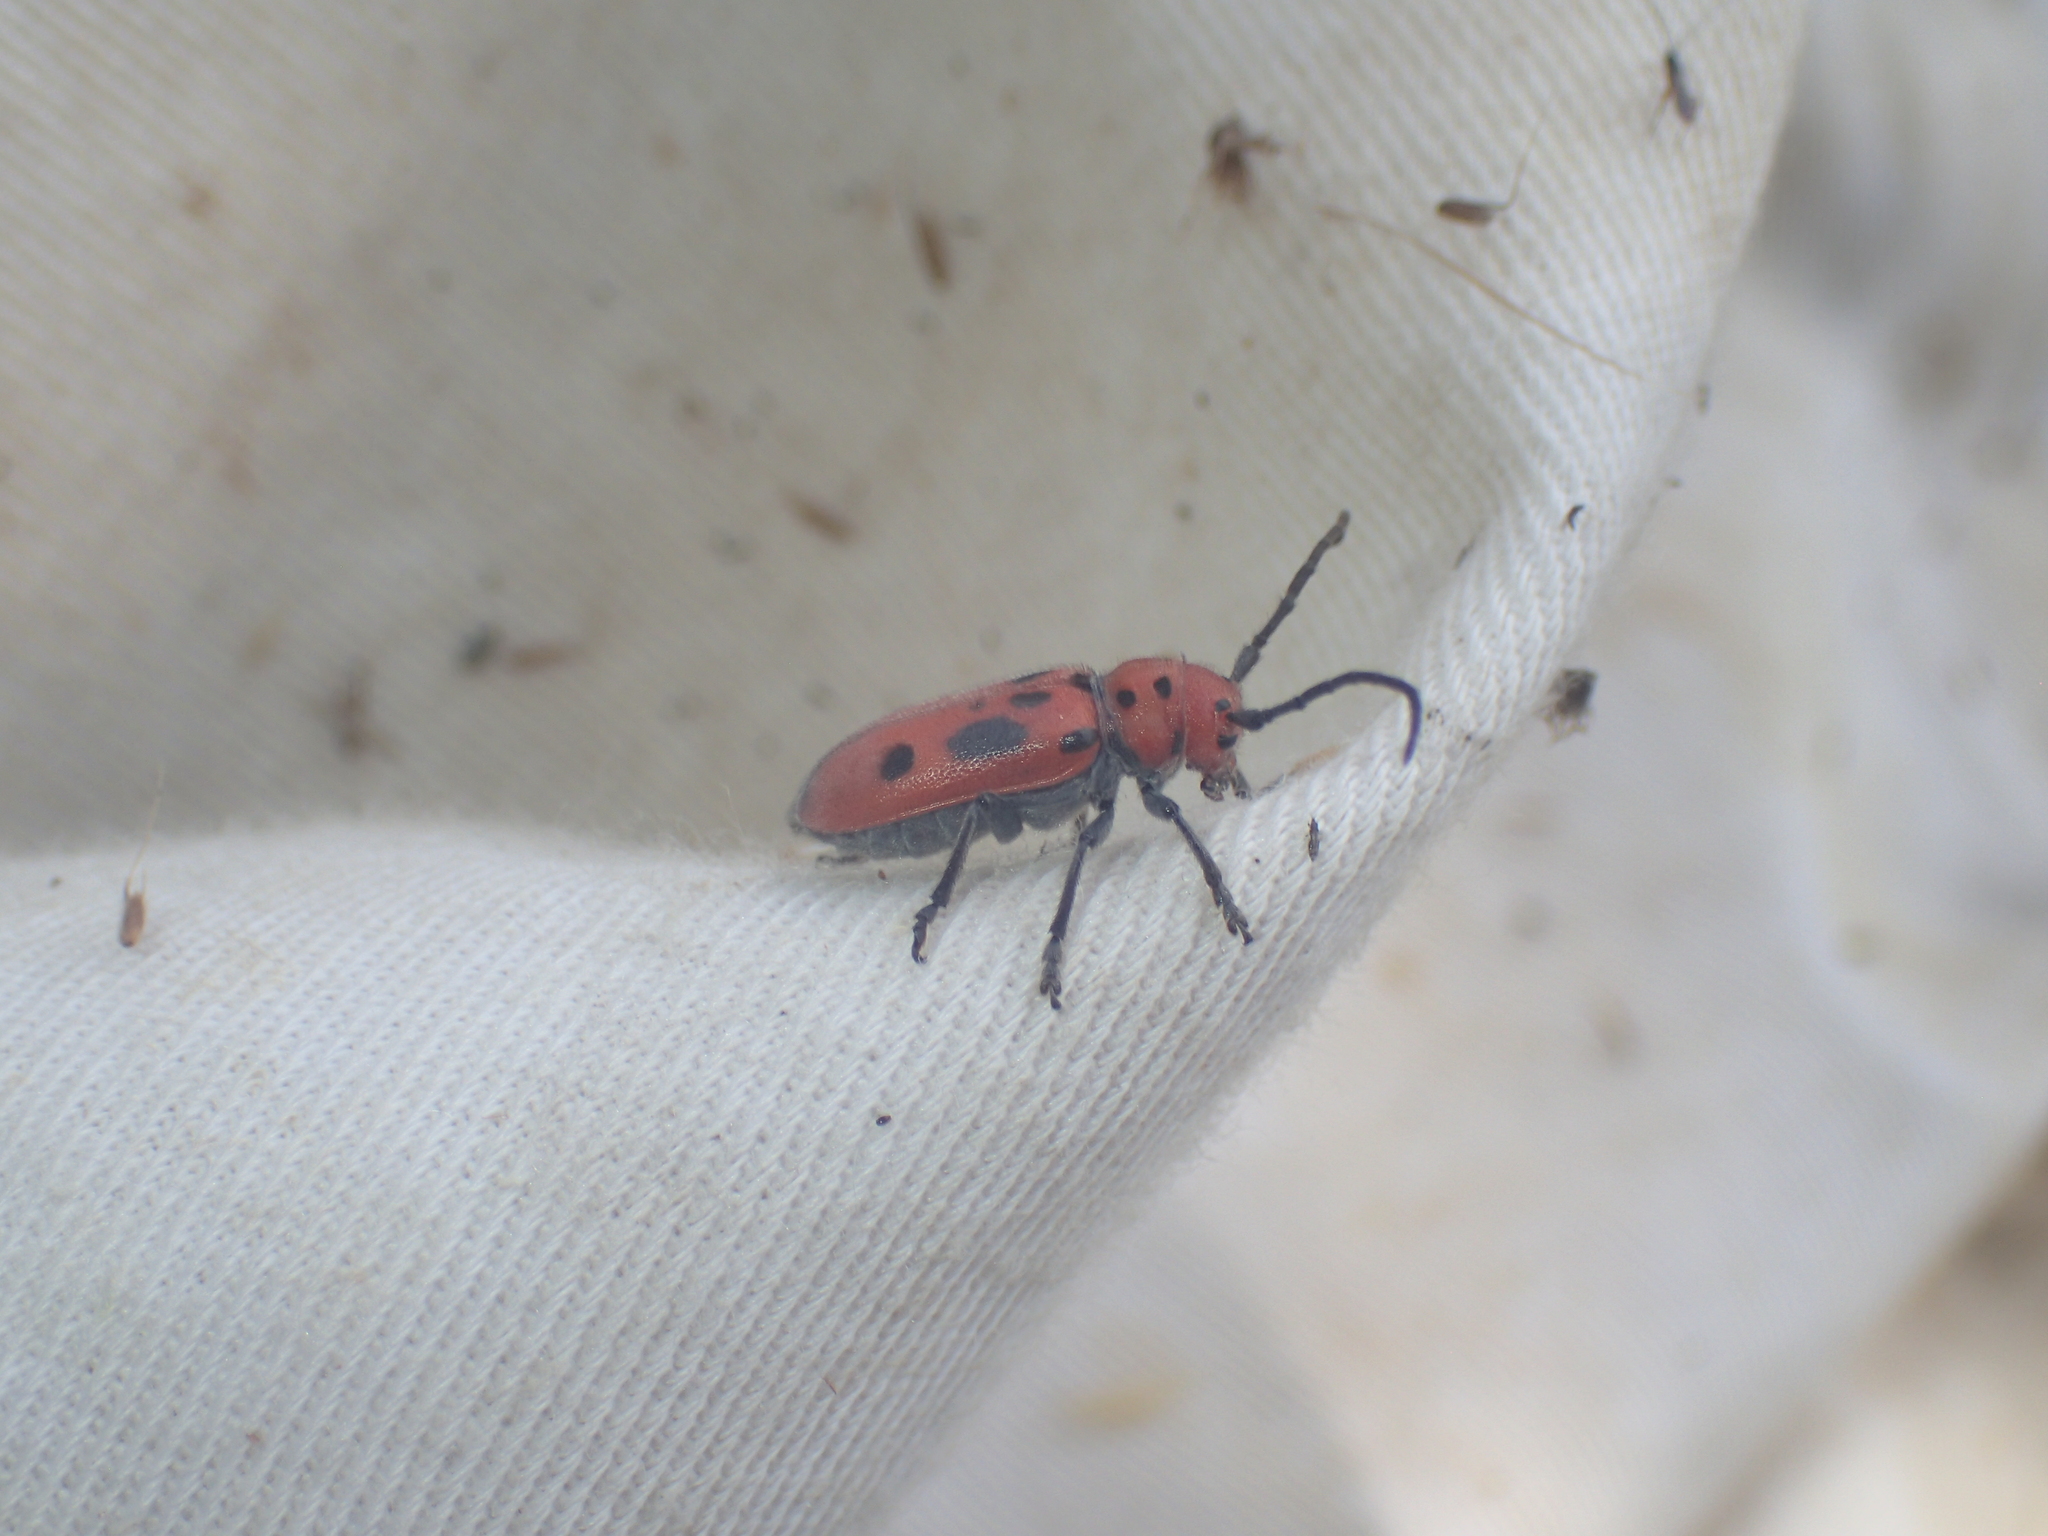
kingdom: Animalia
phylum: Arthropoda
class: Insecta
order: Coleoptera
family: Cerambycidae
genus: Tetraopes
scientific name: Tetraopes tetrophthalmus
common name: Red milkweed beetle
